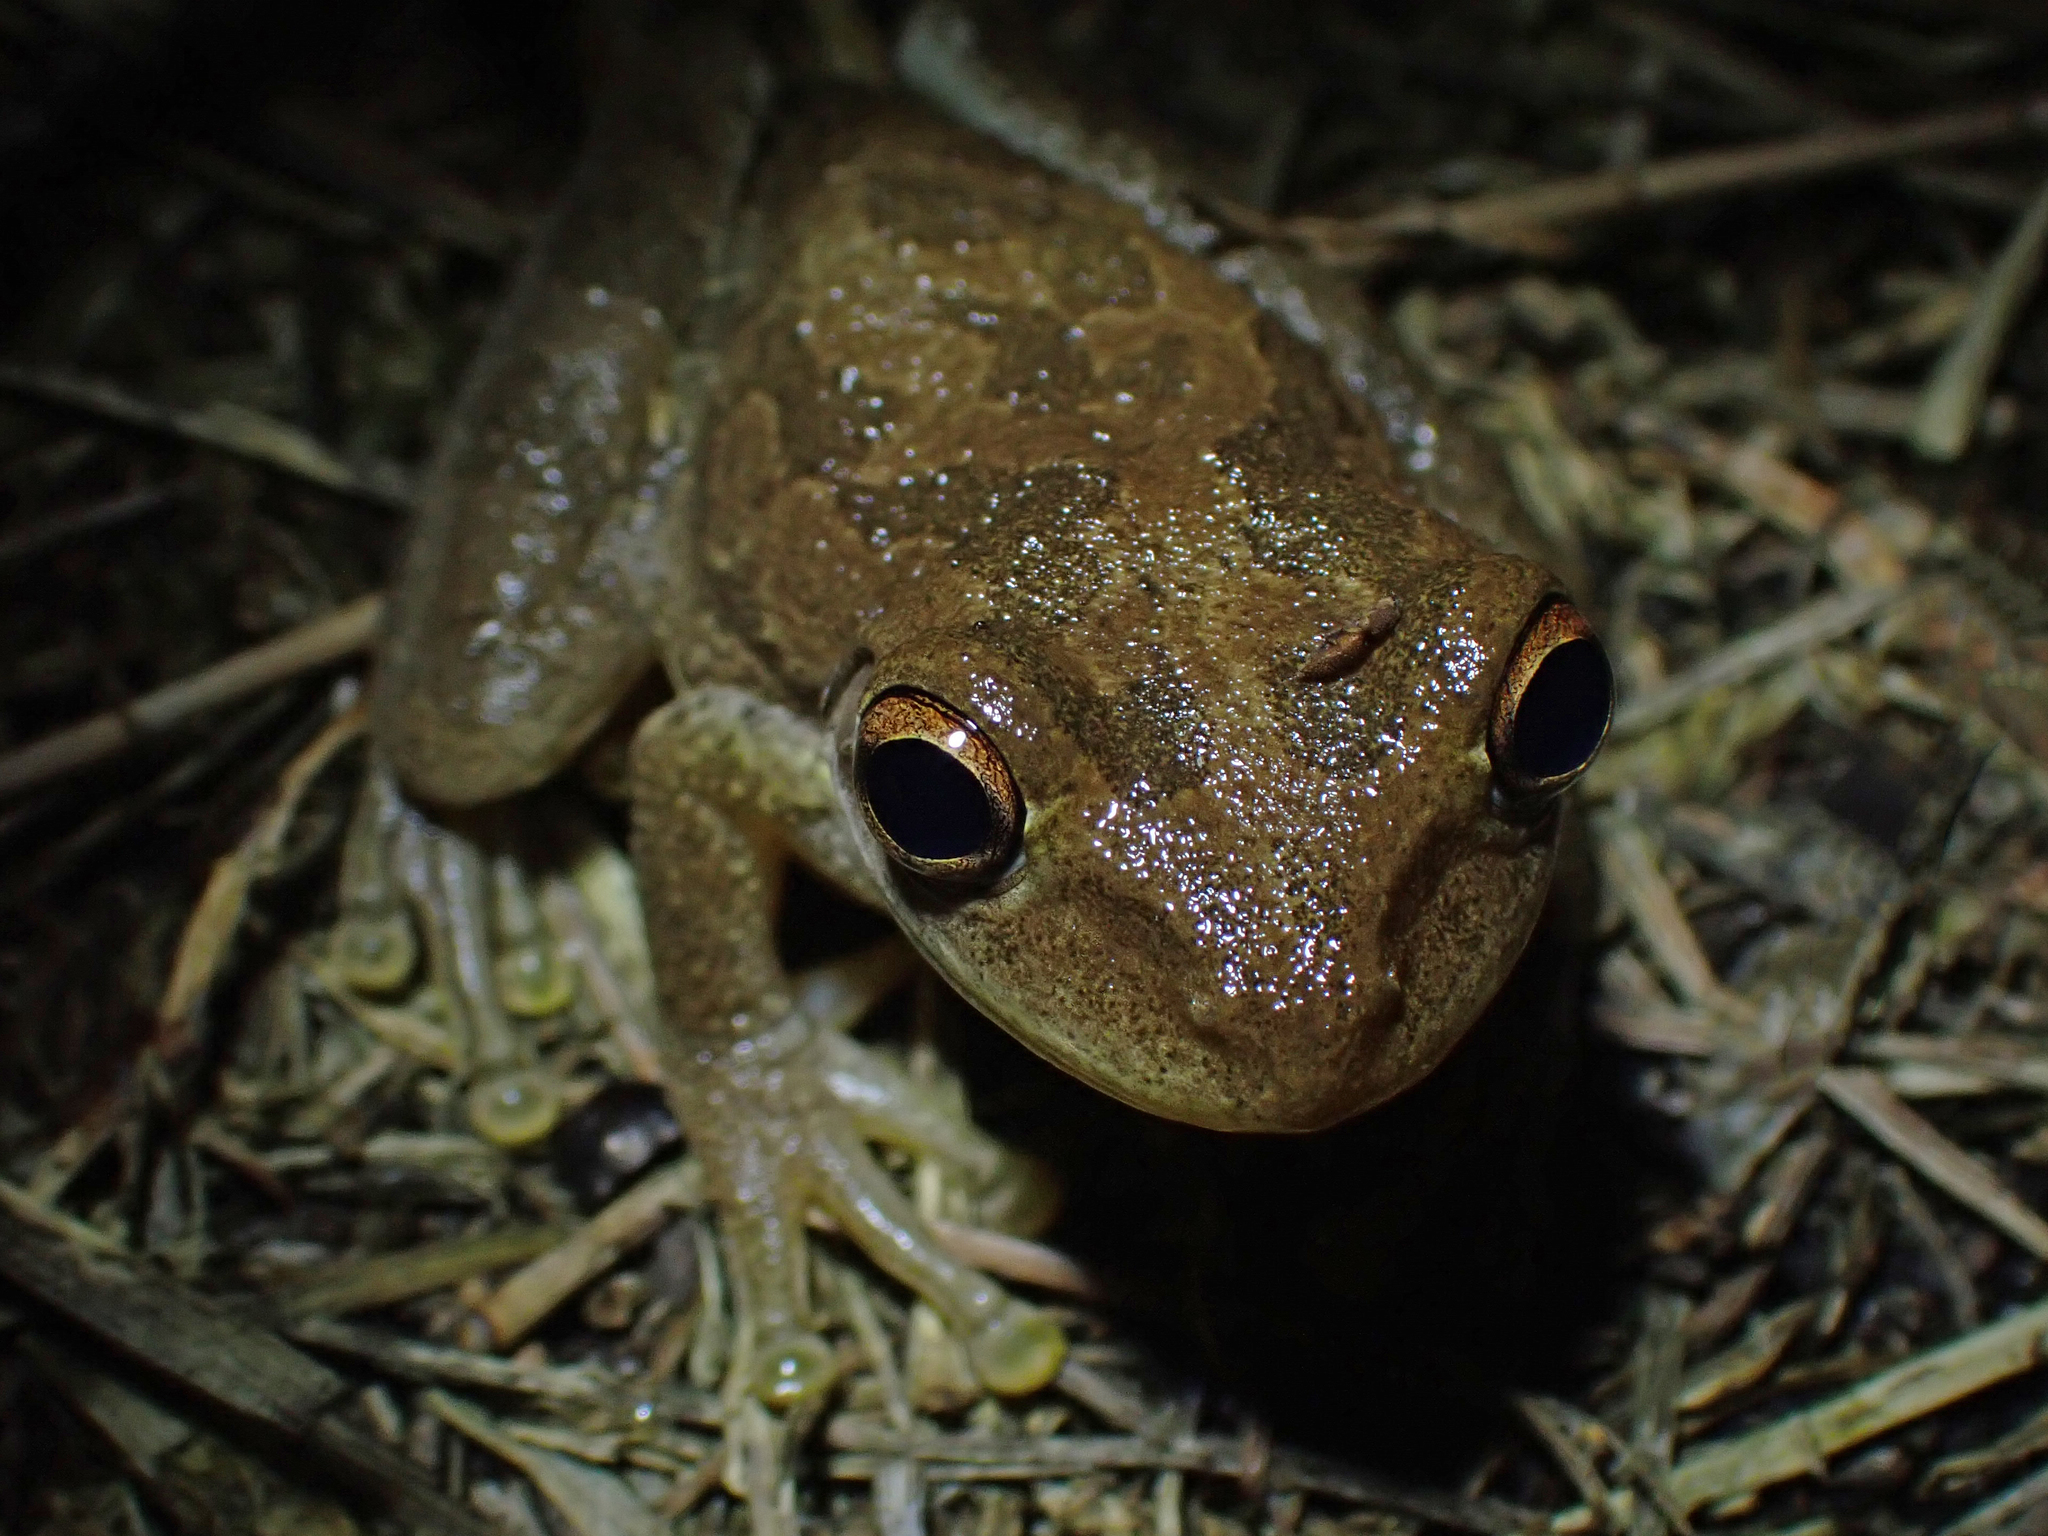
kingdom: Animalia
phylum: Chordata
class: Amphibia
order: Anura
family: Hylidae
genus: Osteopilus
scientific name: Osteopilus septentrionalis
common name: Cuban treefrog
